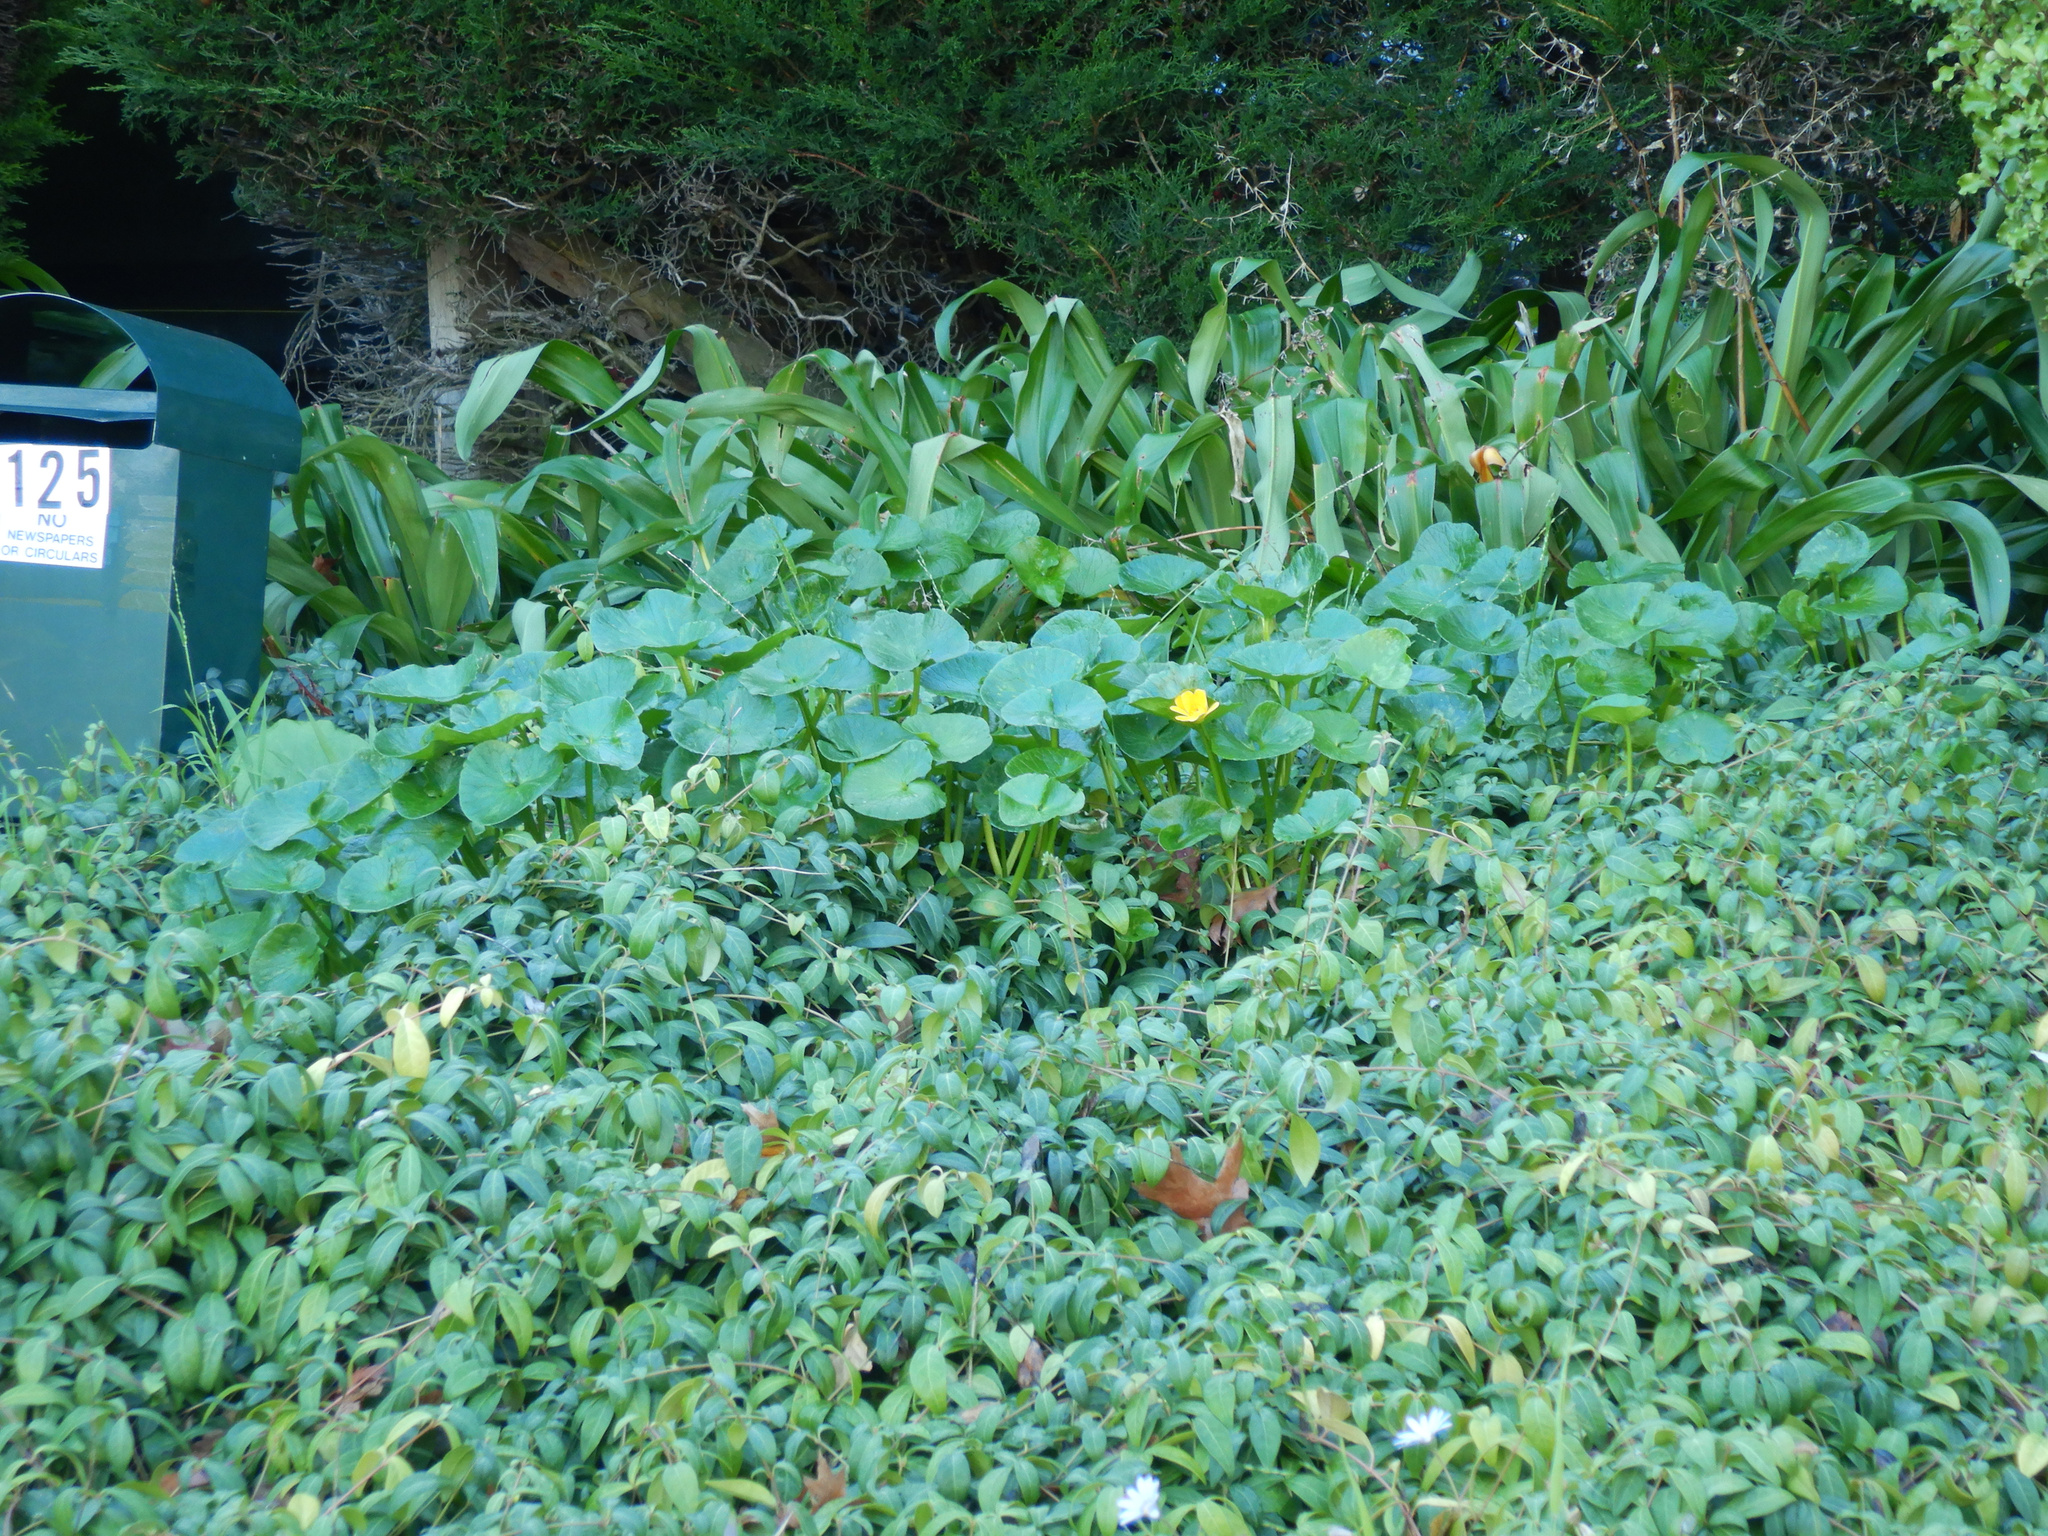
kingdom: Plantae
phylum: Tracheophyta
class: Magnoliopsida
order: Ranunculales
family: Ranunculaceae
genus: Ficaria
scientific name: Ficaria verna
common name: Lesser celandine
